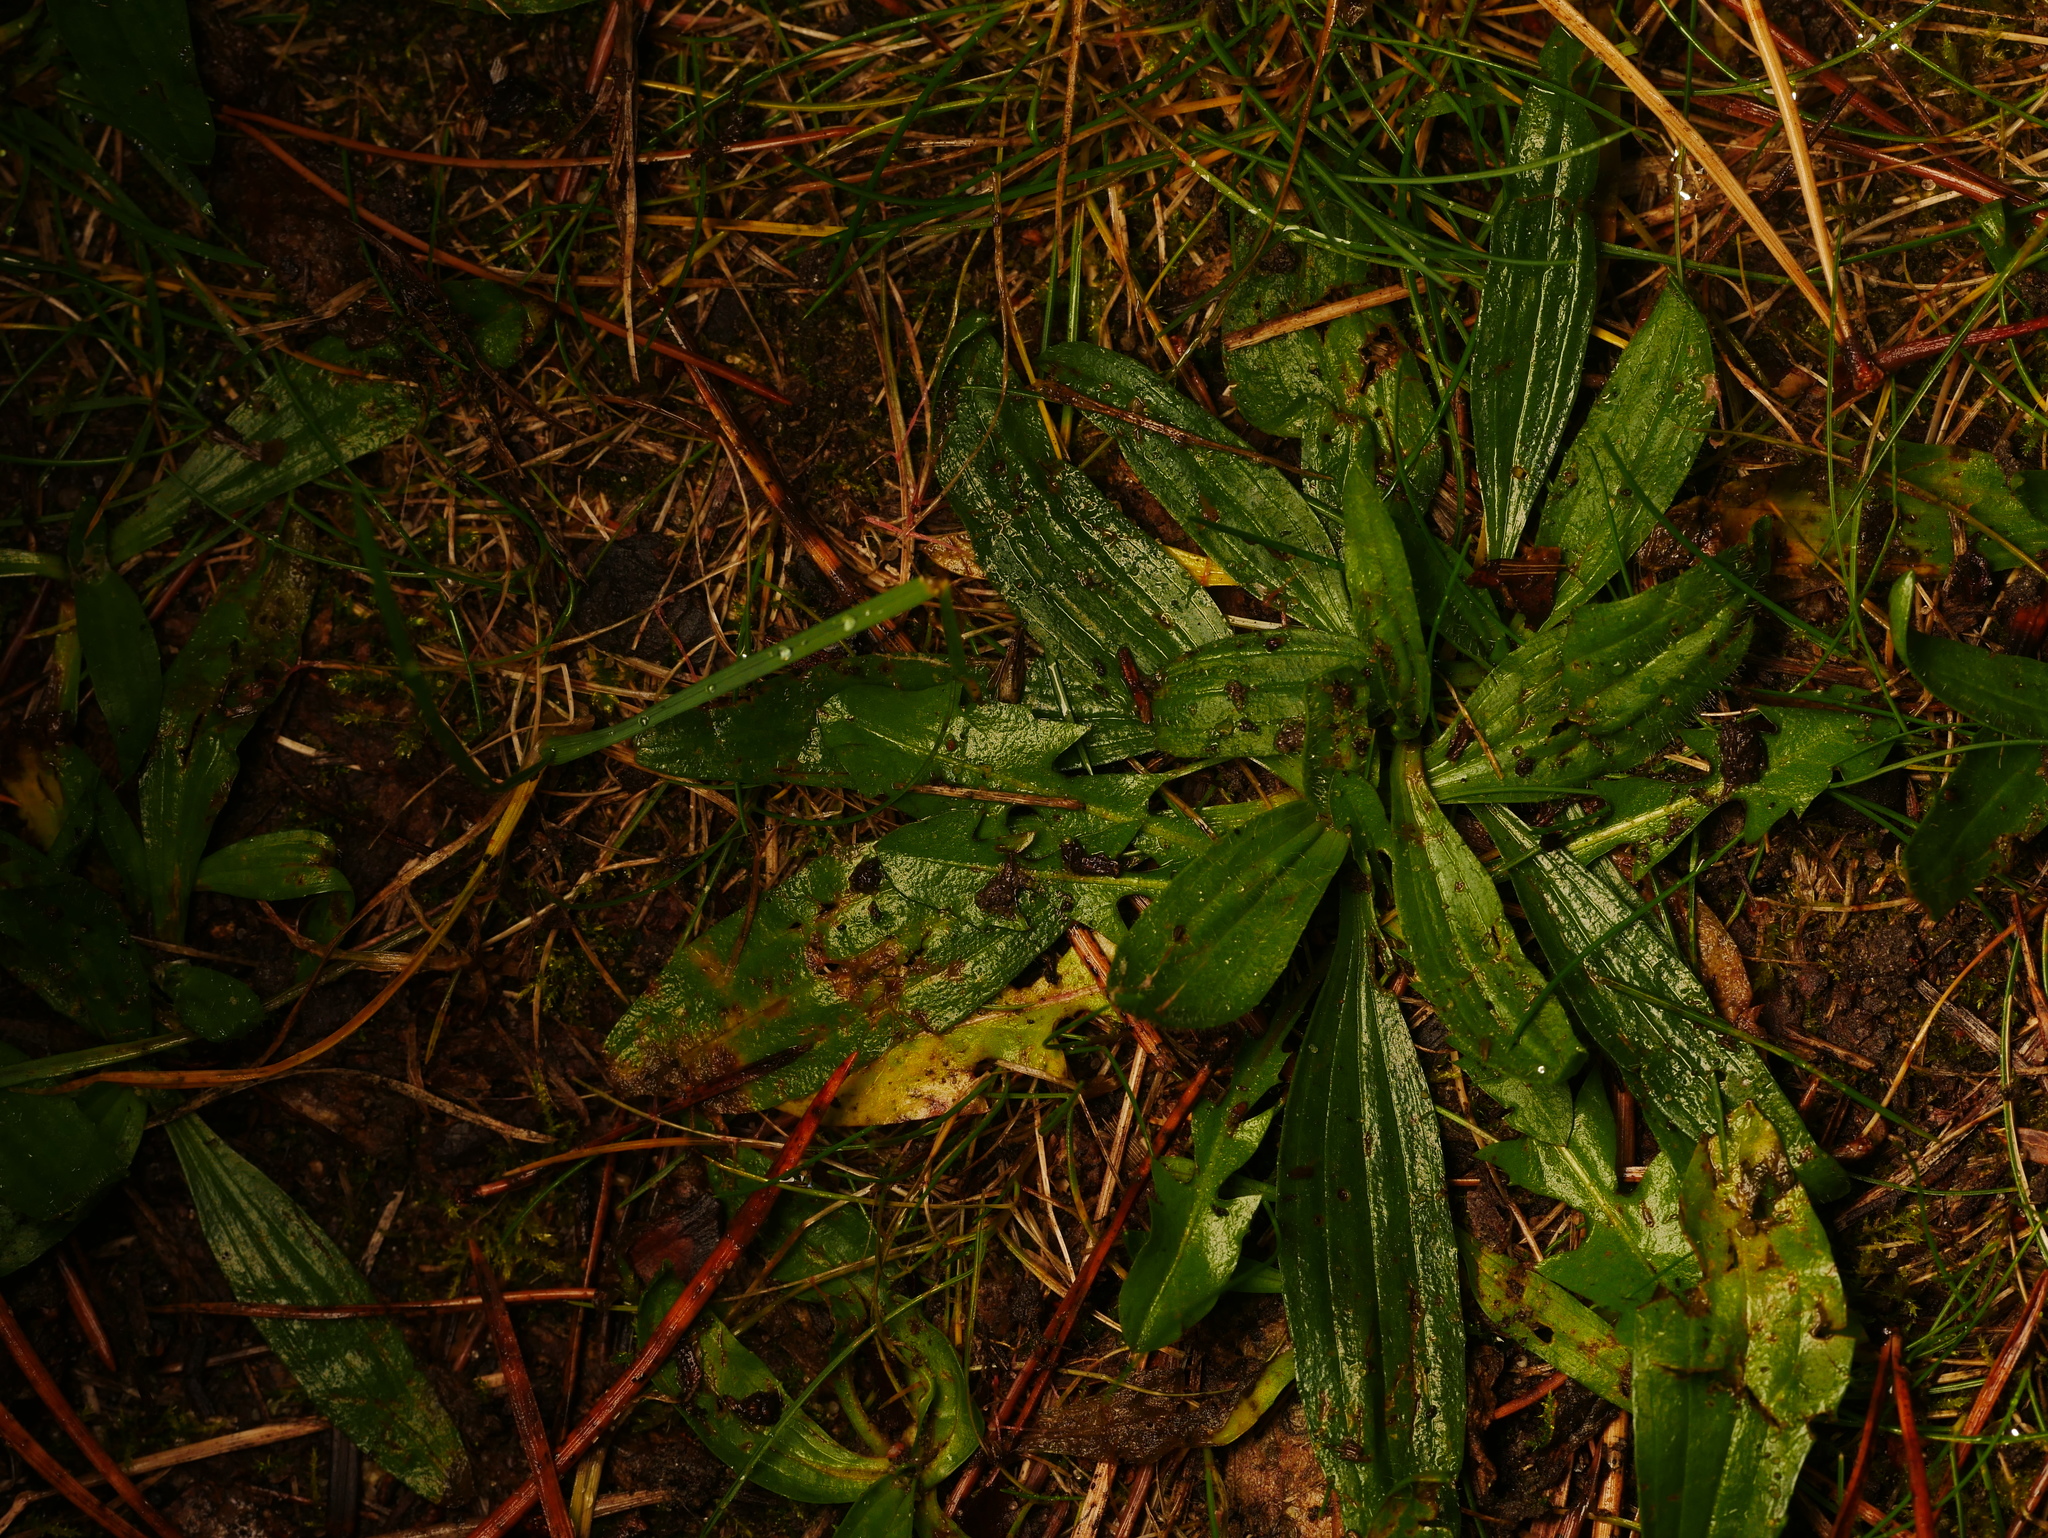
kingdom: Plantae
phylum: Tracheophyta
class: Magnoliopsida
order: Lamiales
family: Plantaginaceae
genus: Plantago
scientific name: Plantago lanceolata
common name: Ribwort plantain
